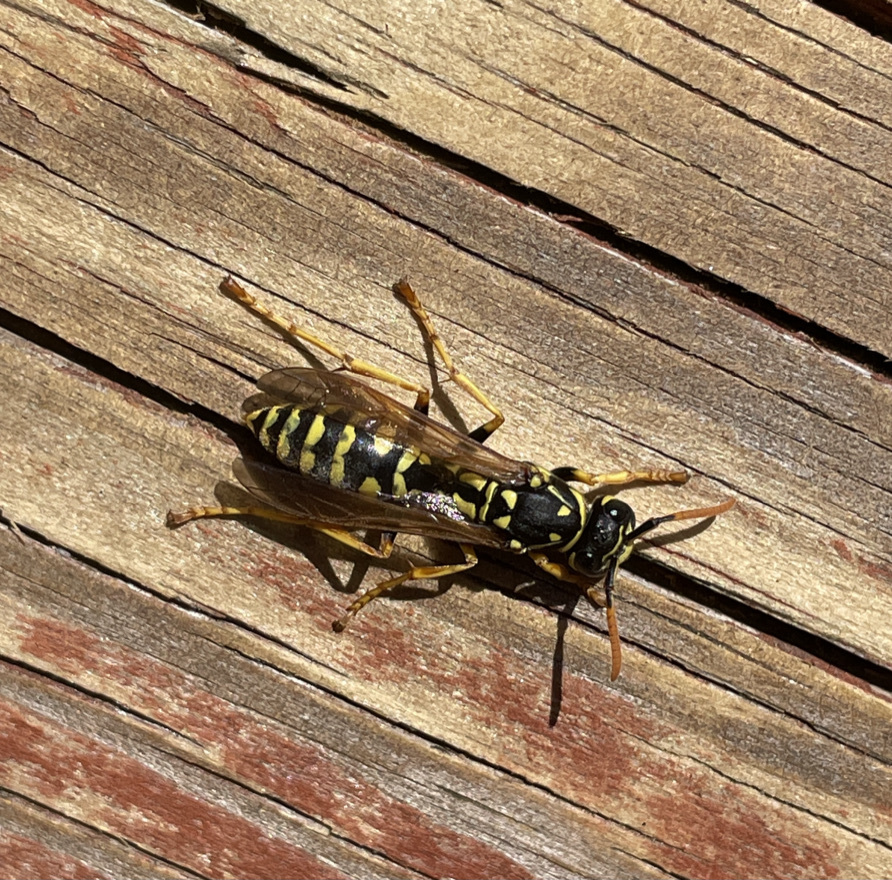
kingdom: Animalia
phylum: Arthropoda
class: Insecta
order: Hymenoptera
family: Eumenidae
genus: Polistes
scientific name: Polistes dominula
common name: Paper wasp
